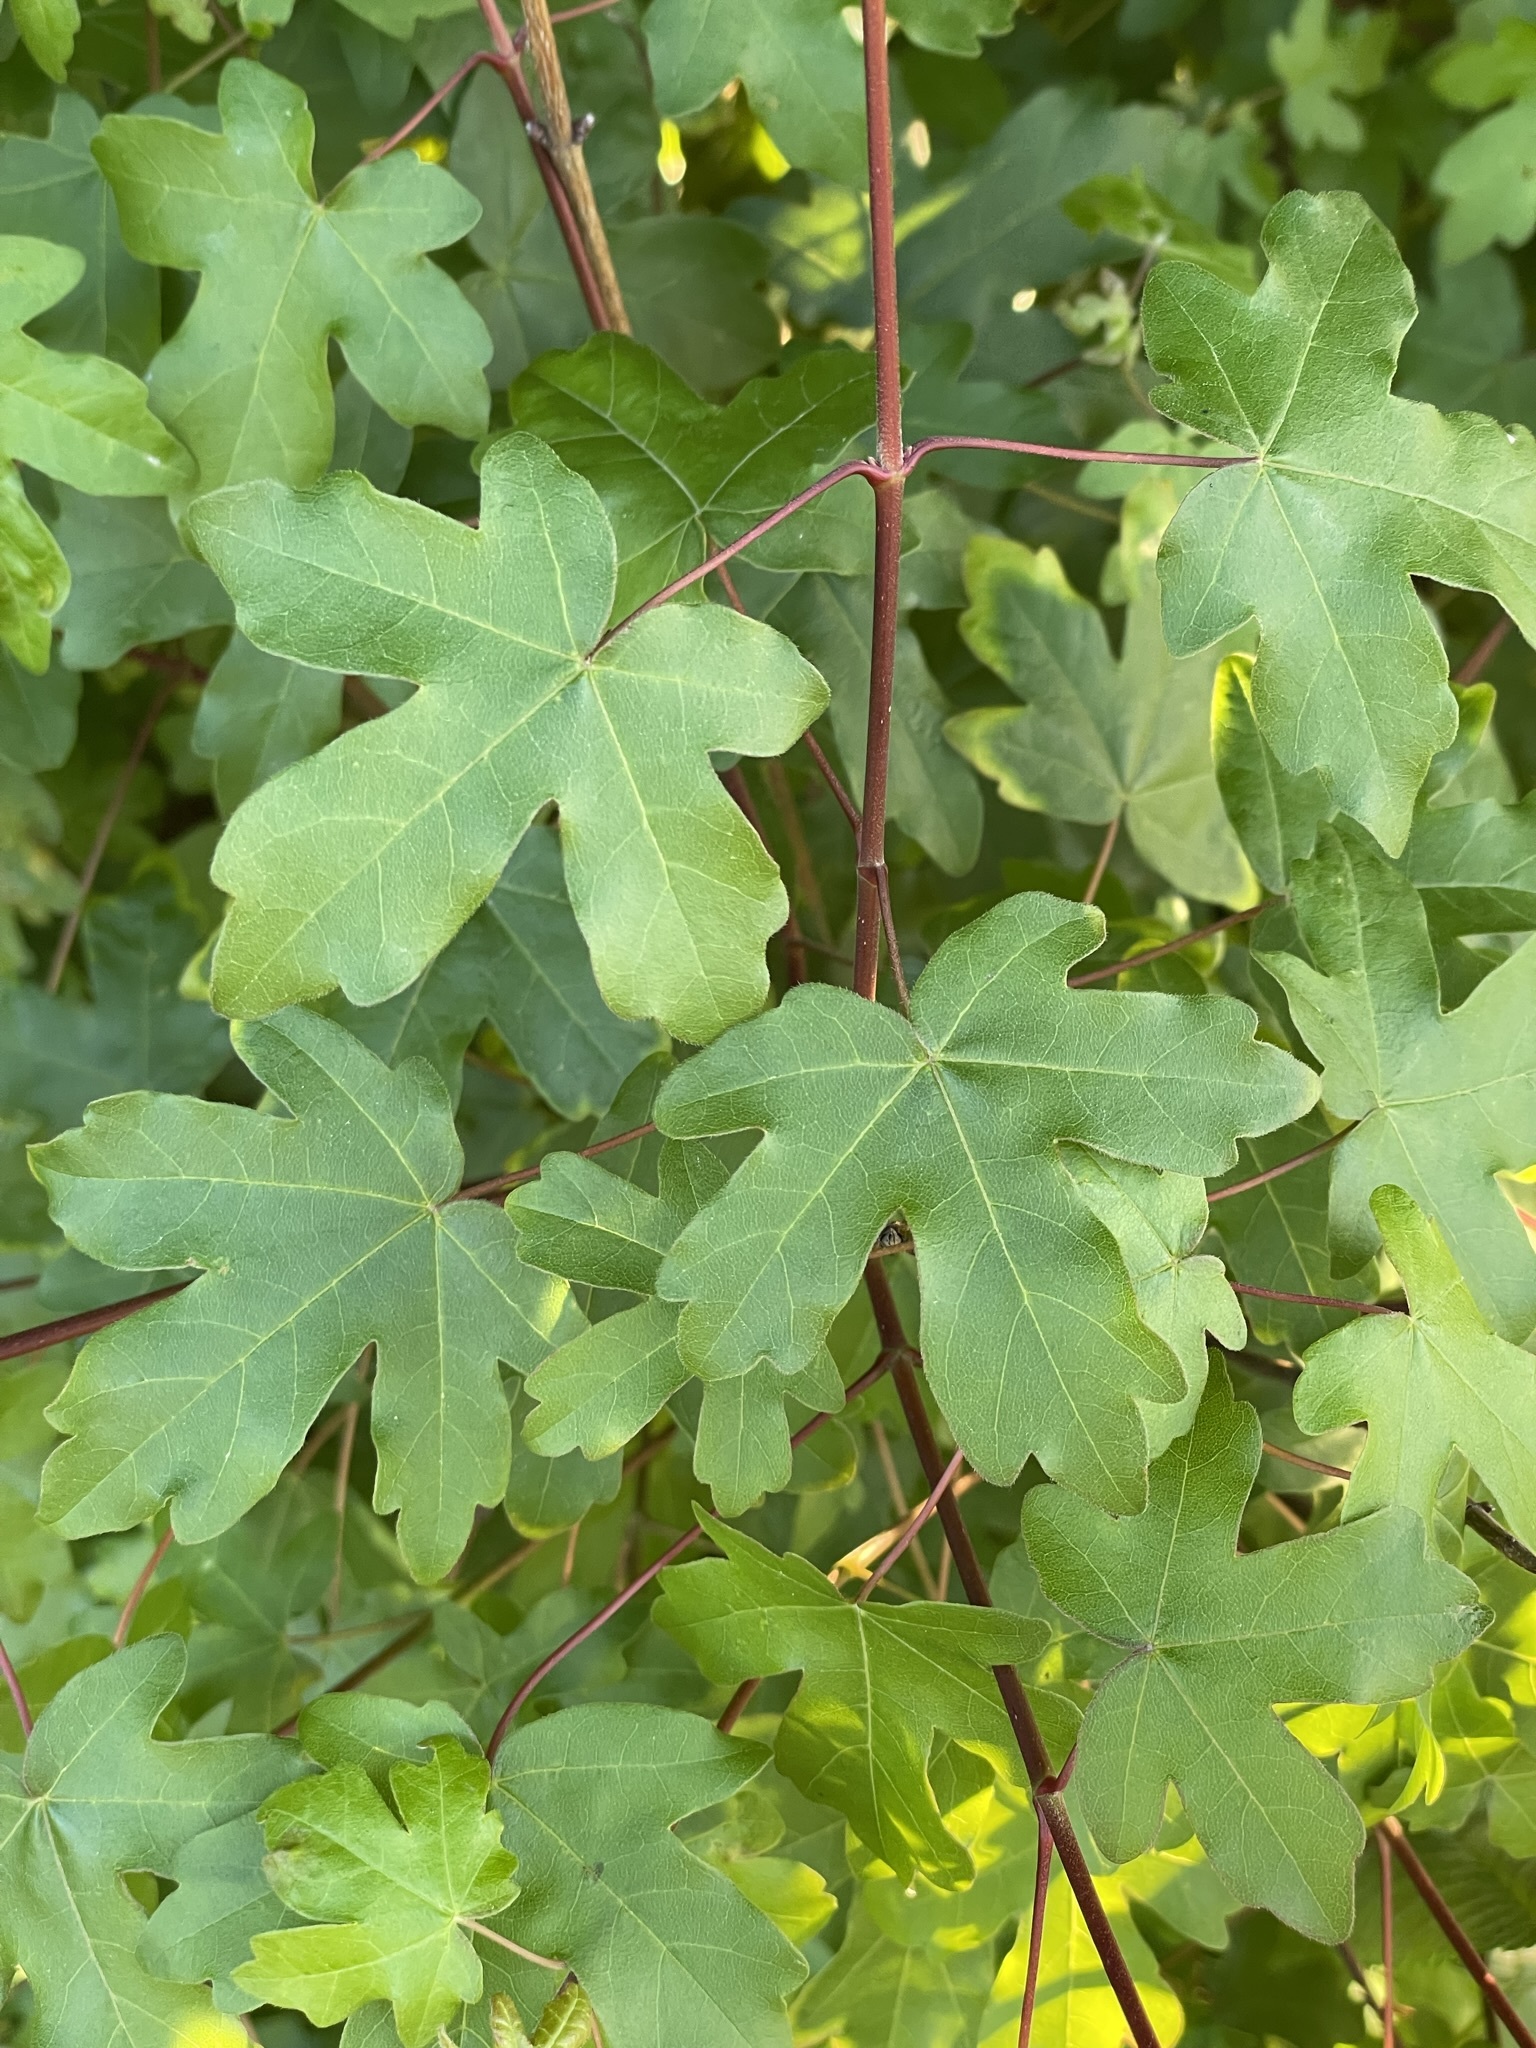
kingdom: Plantae
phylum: Tracheophyta
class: Magnoliopsida
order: Sapindales
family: Sapindaceae
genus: Acer
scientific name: Acer campestre
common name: Field maple
